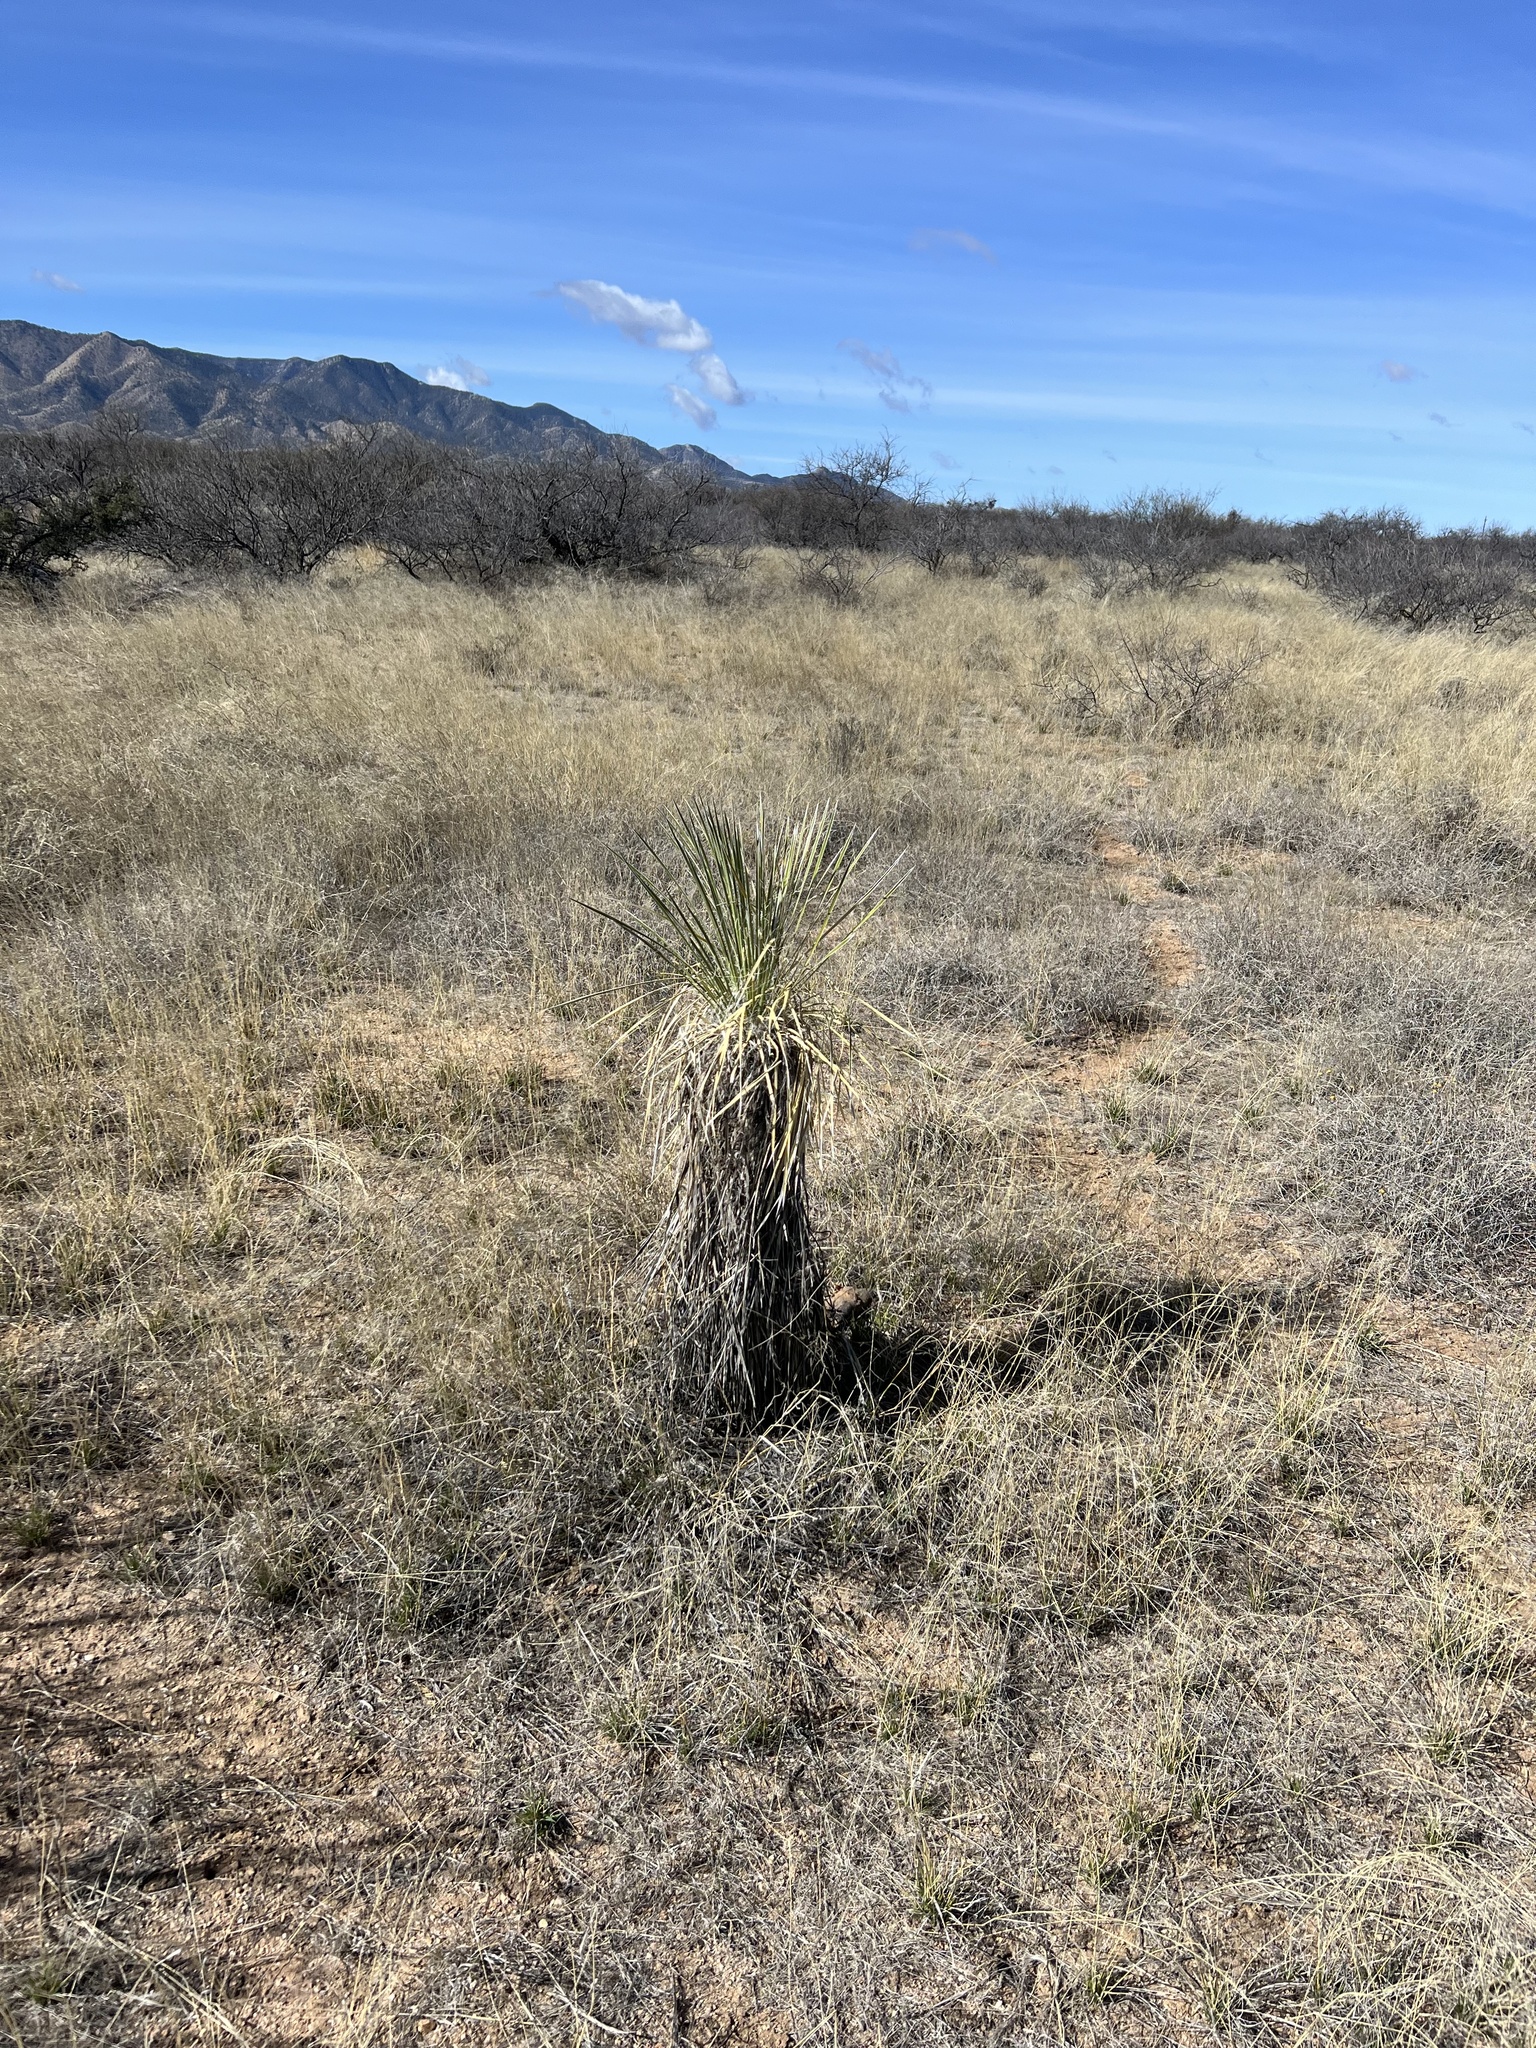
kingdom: Plantae
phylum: Tracheophyta
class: Liliopsida
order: Asparagales
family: Asparagaceae
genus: Yucca
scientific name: Yucca elata
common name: Palmella
